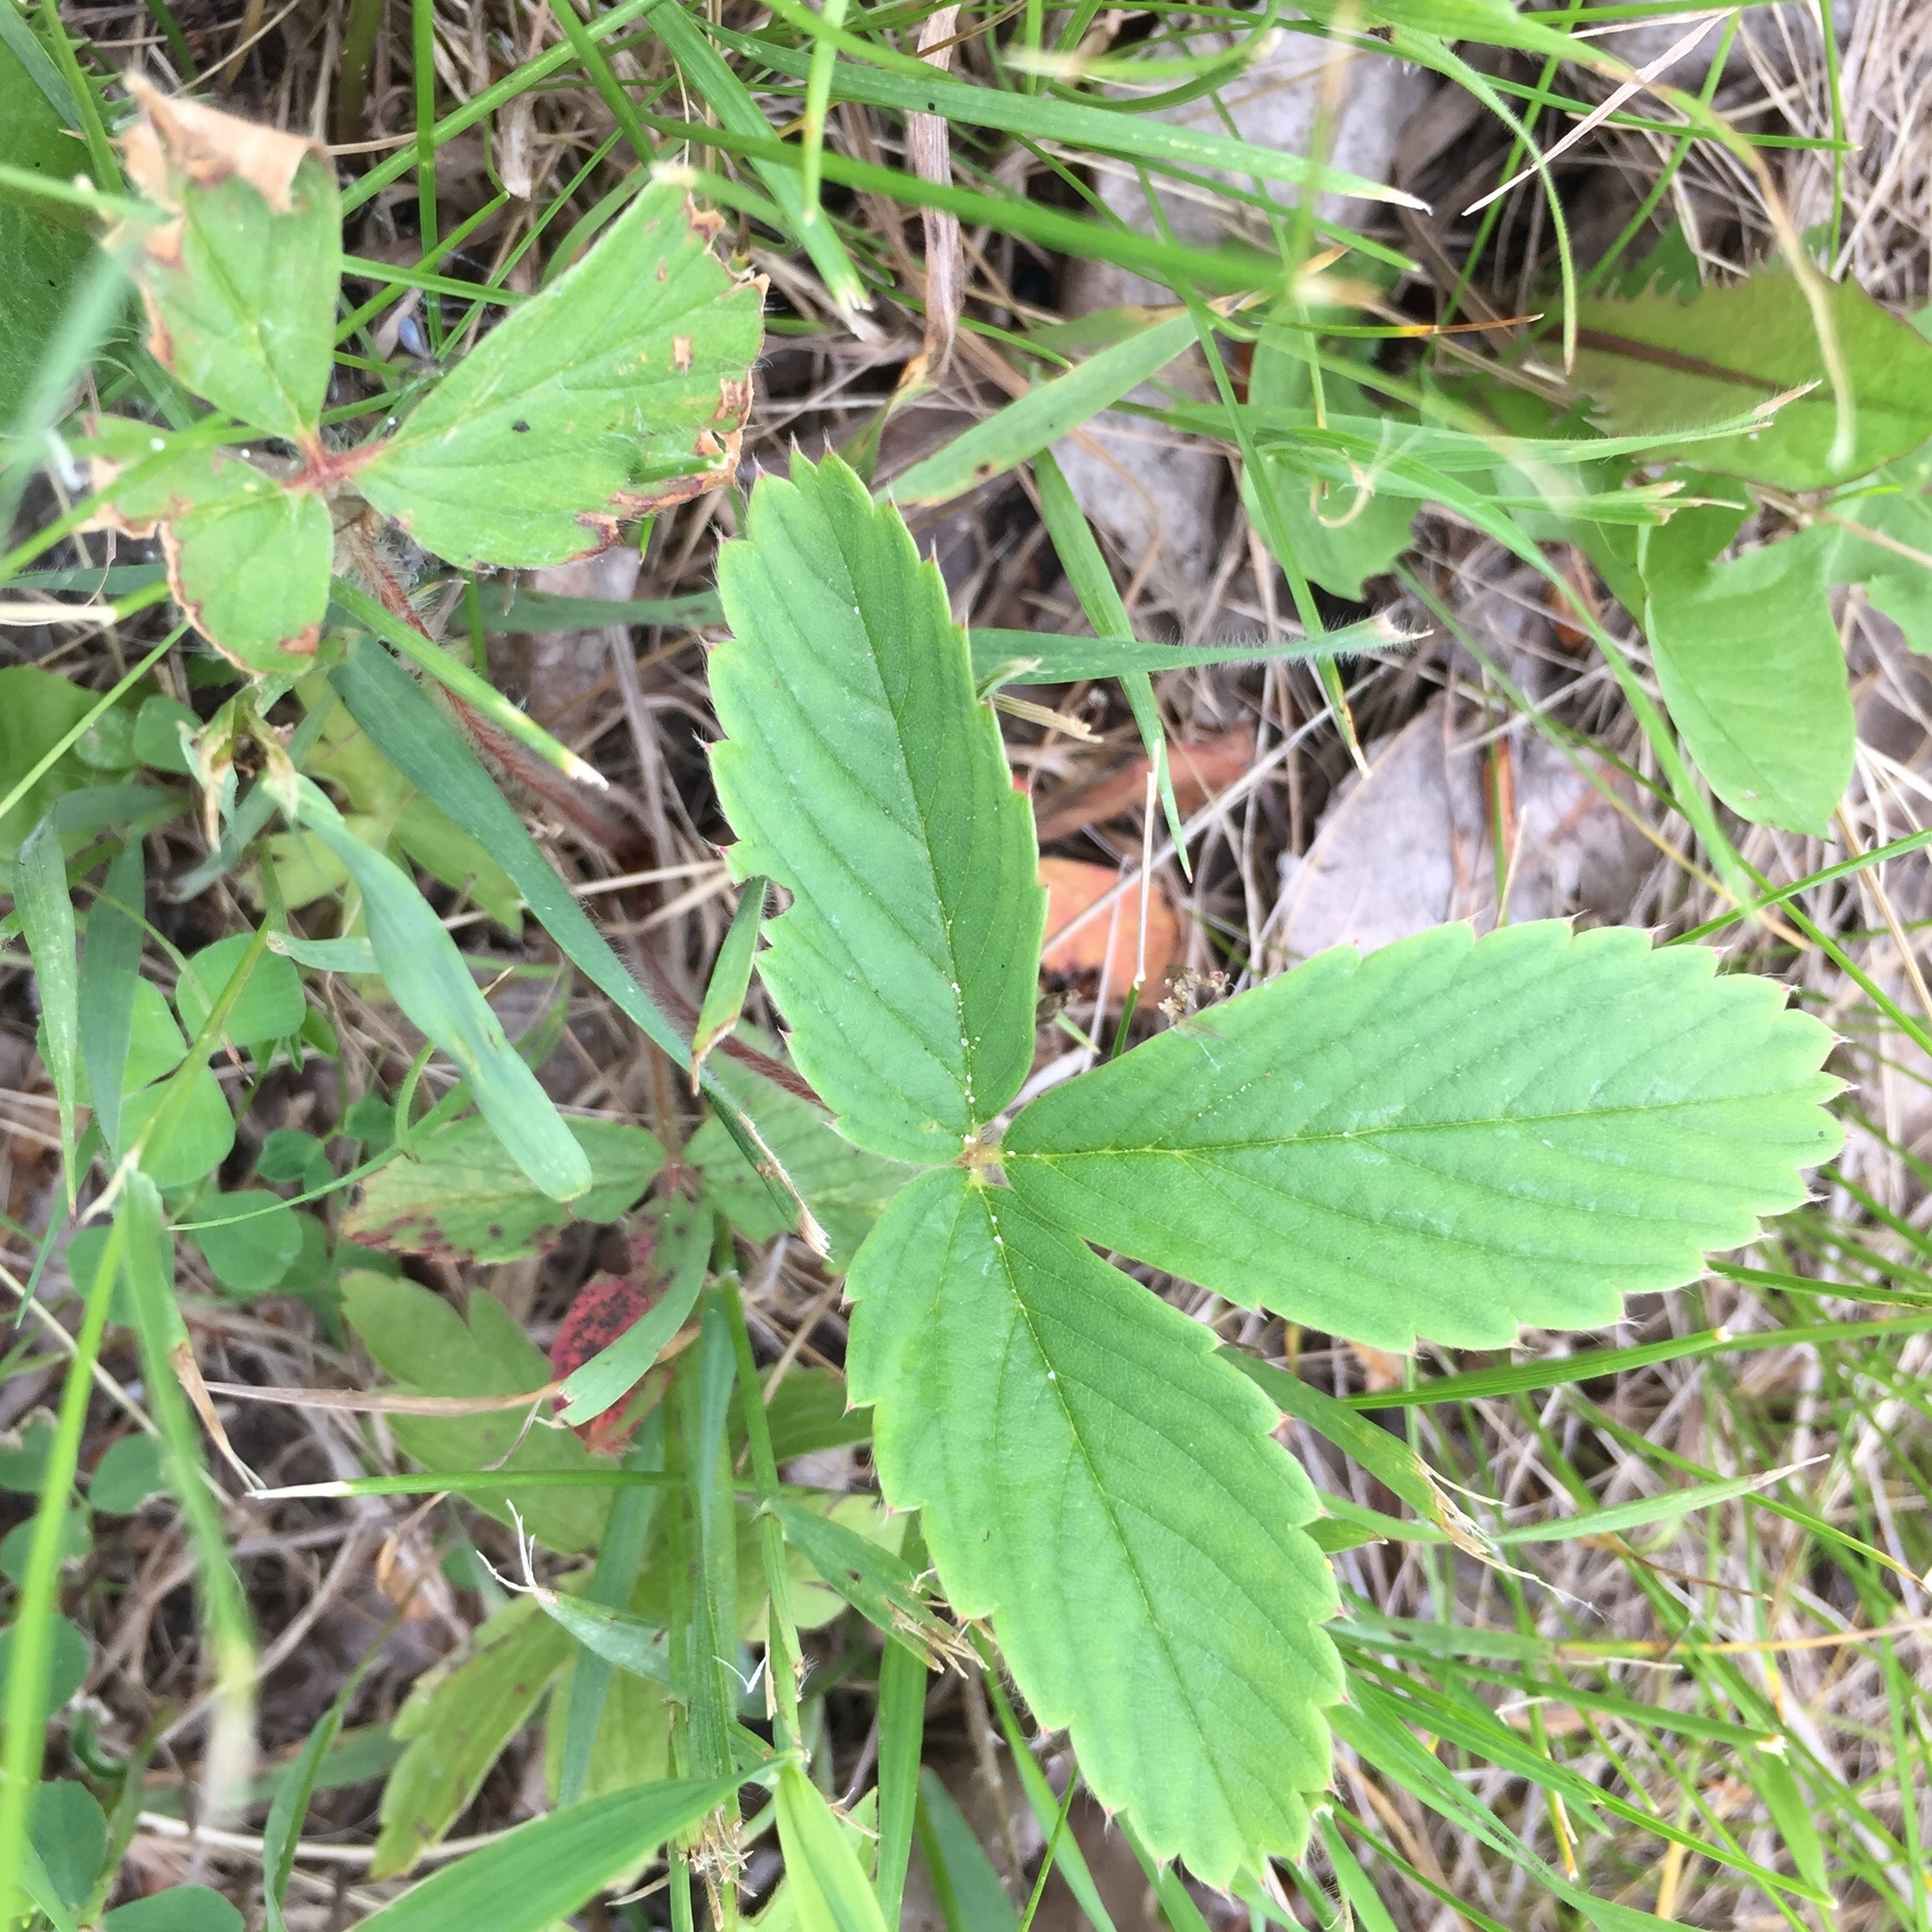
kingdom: Plantae
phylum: Tracheophyta
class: Magnoliopsida
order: Rosales
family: Rosaceae
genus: Fragaria
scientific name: Fragaria virginiana
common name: Thickleaved wild strawberry
